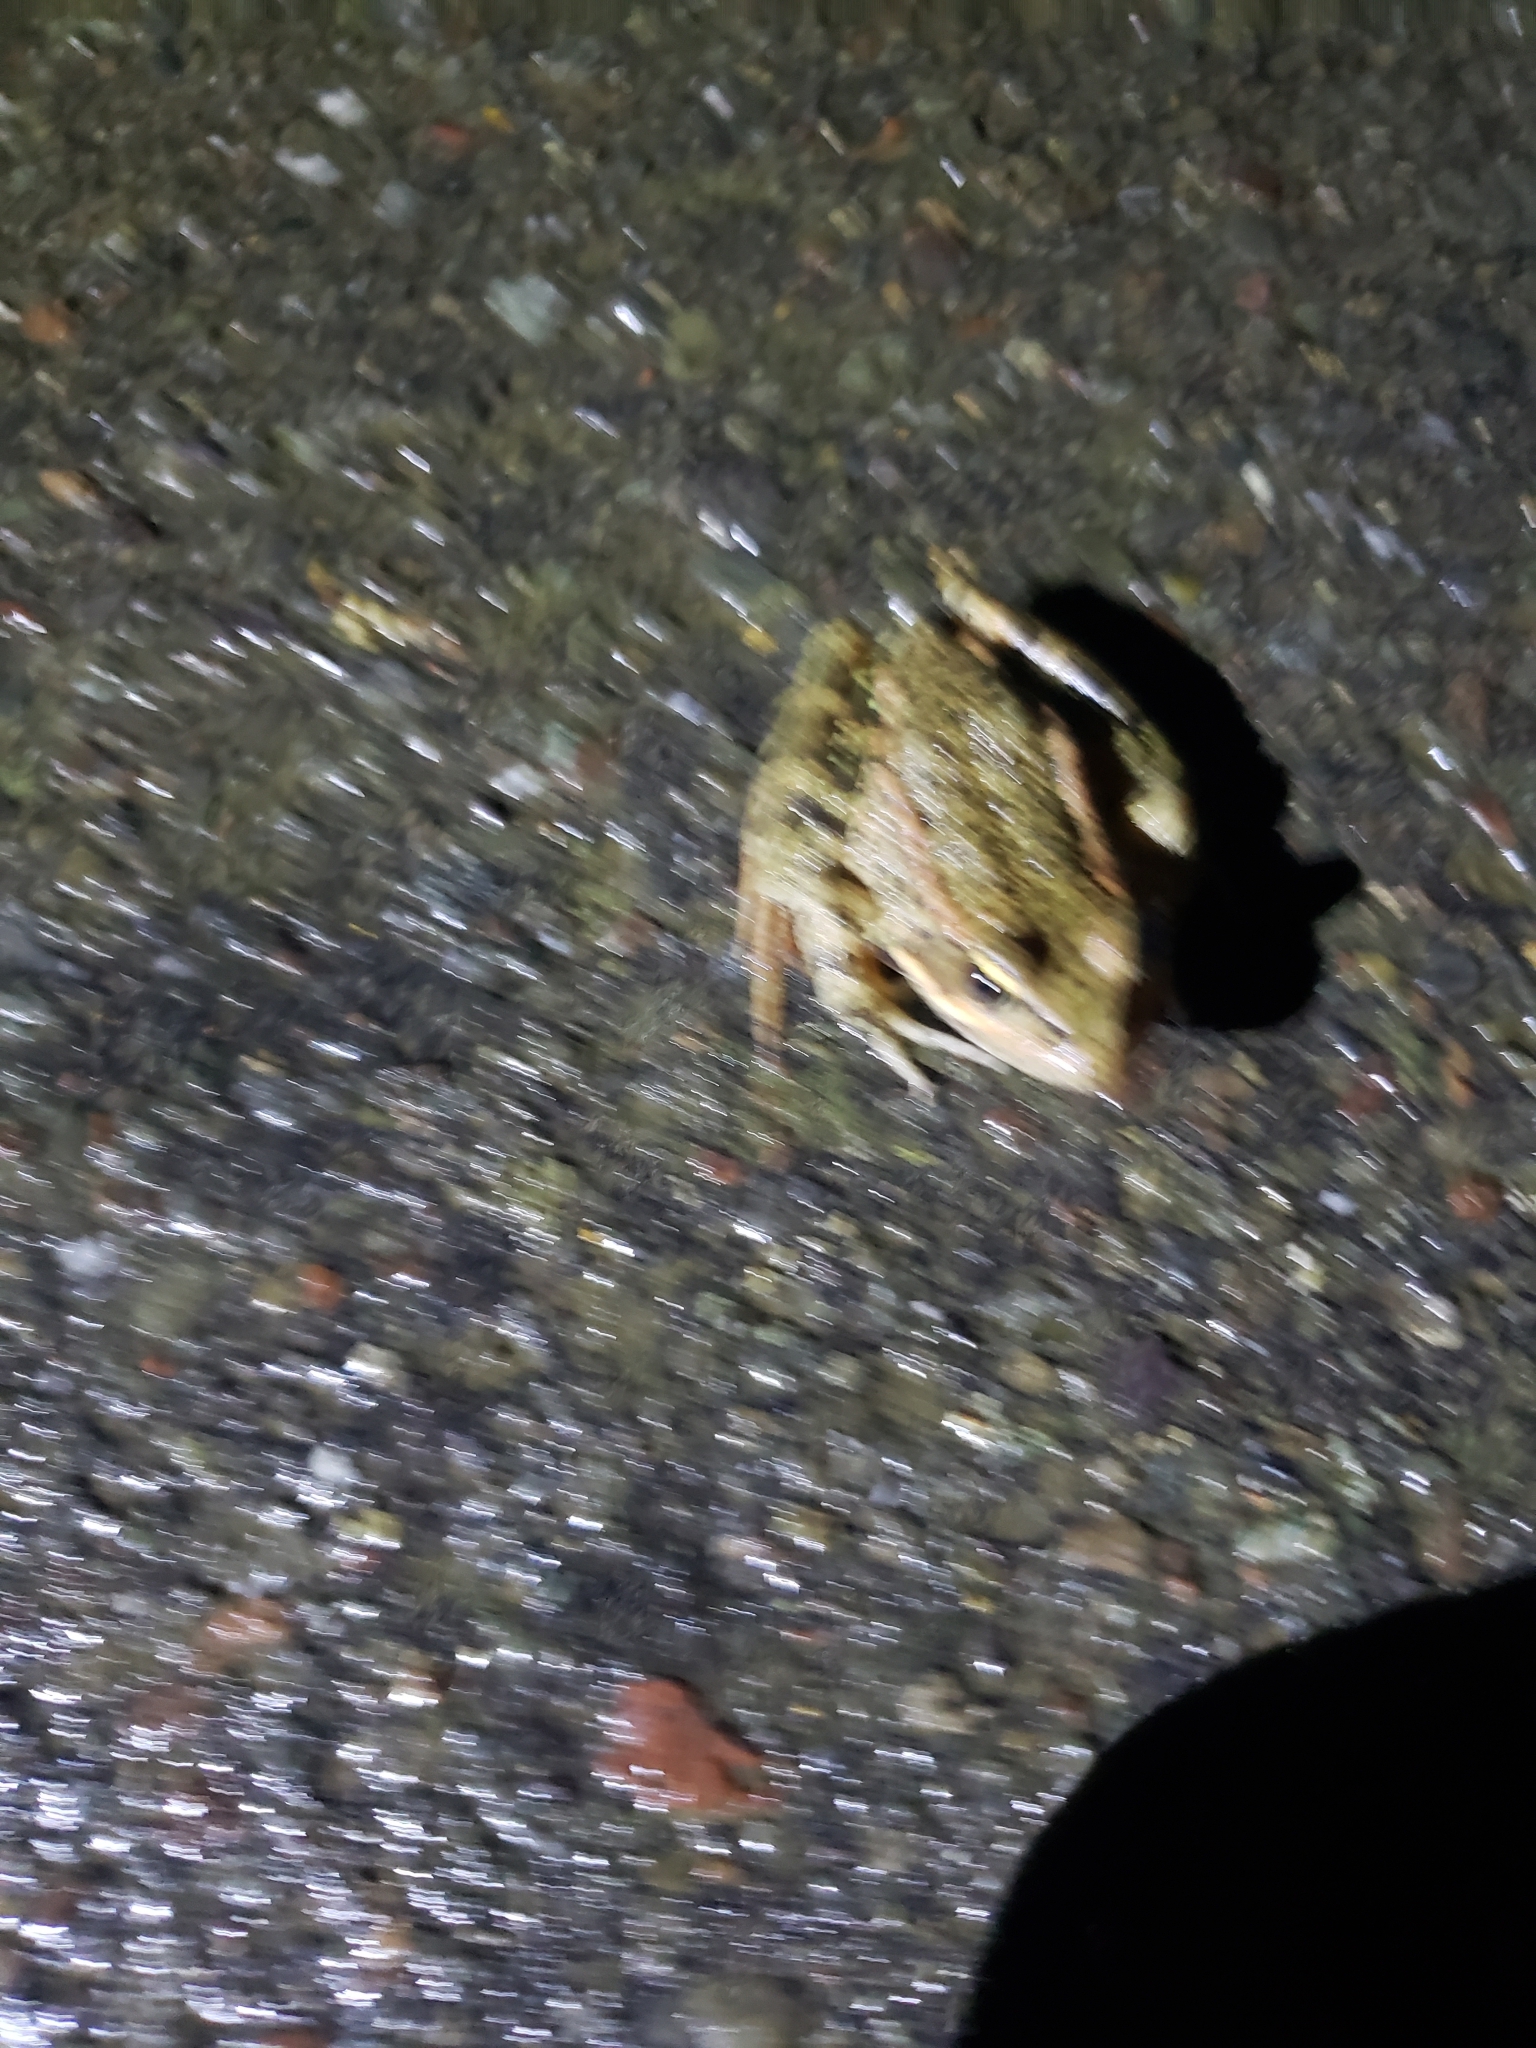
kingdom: Animalia
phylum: Chordata
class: Amphibia
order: Anura
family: Ranidae
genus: Rana
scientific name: Rana draytonii
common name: California red-legged frog
